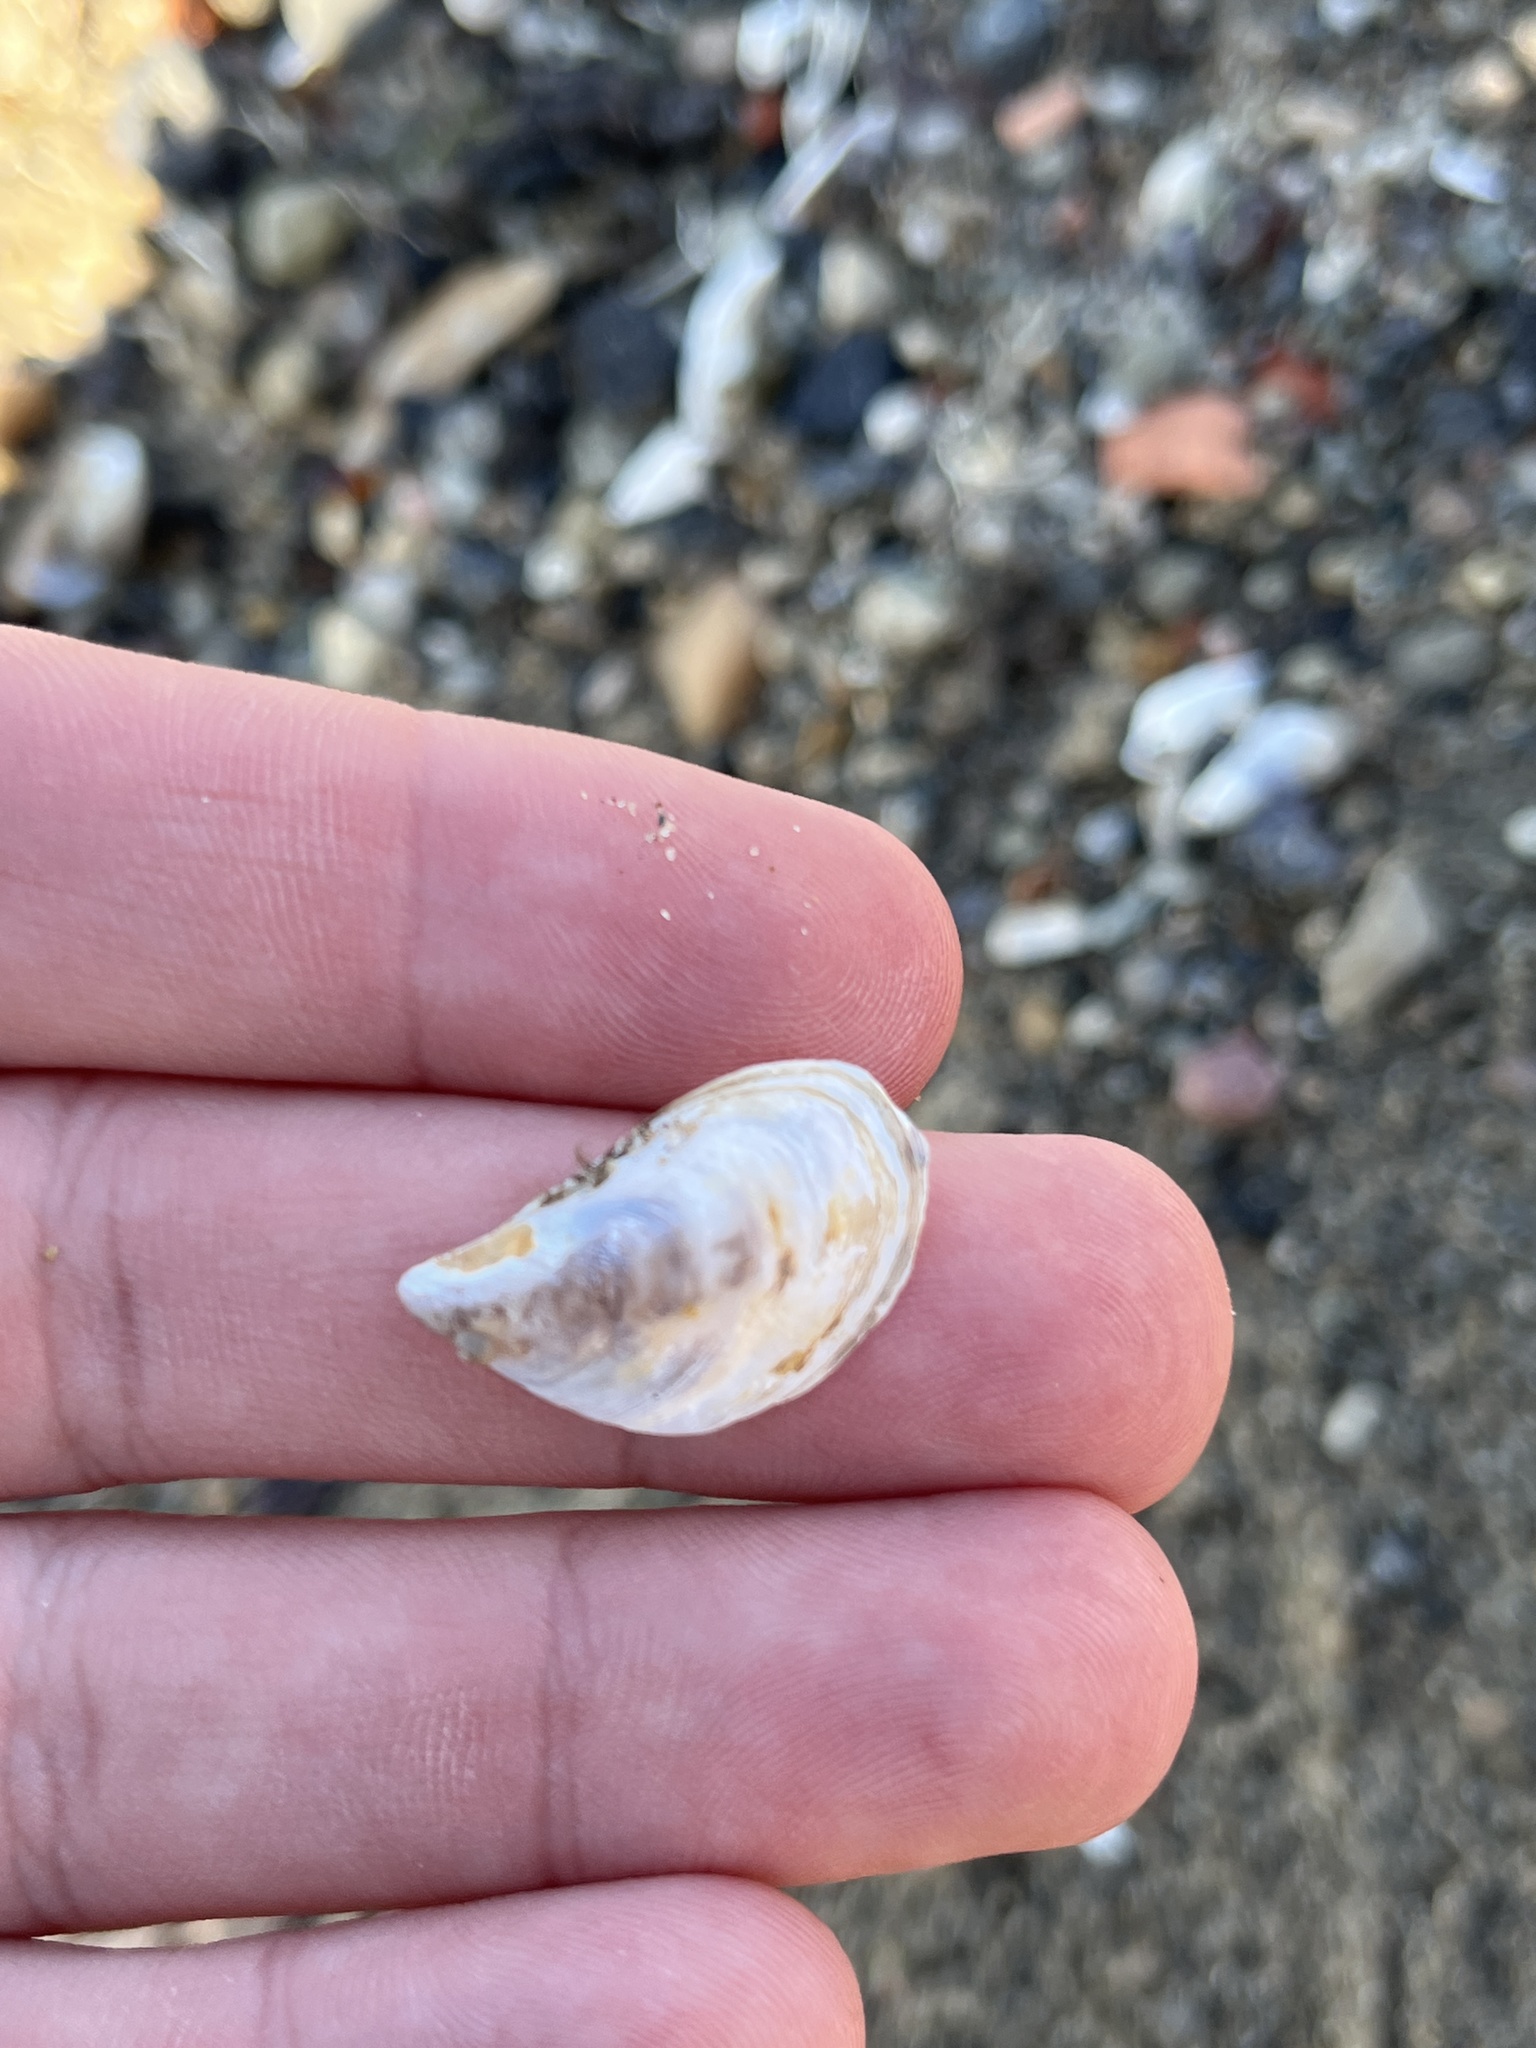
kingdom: Animalia
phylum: Mollusca
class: Bivalvia
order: Myida
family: Dreissenidae
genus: Dreissena
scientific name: Dreissena bugensis
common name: Quagga mussel
